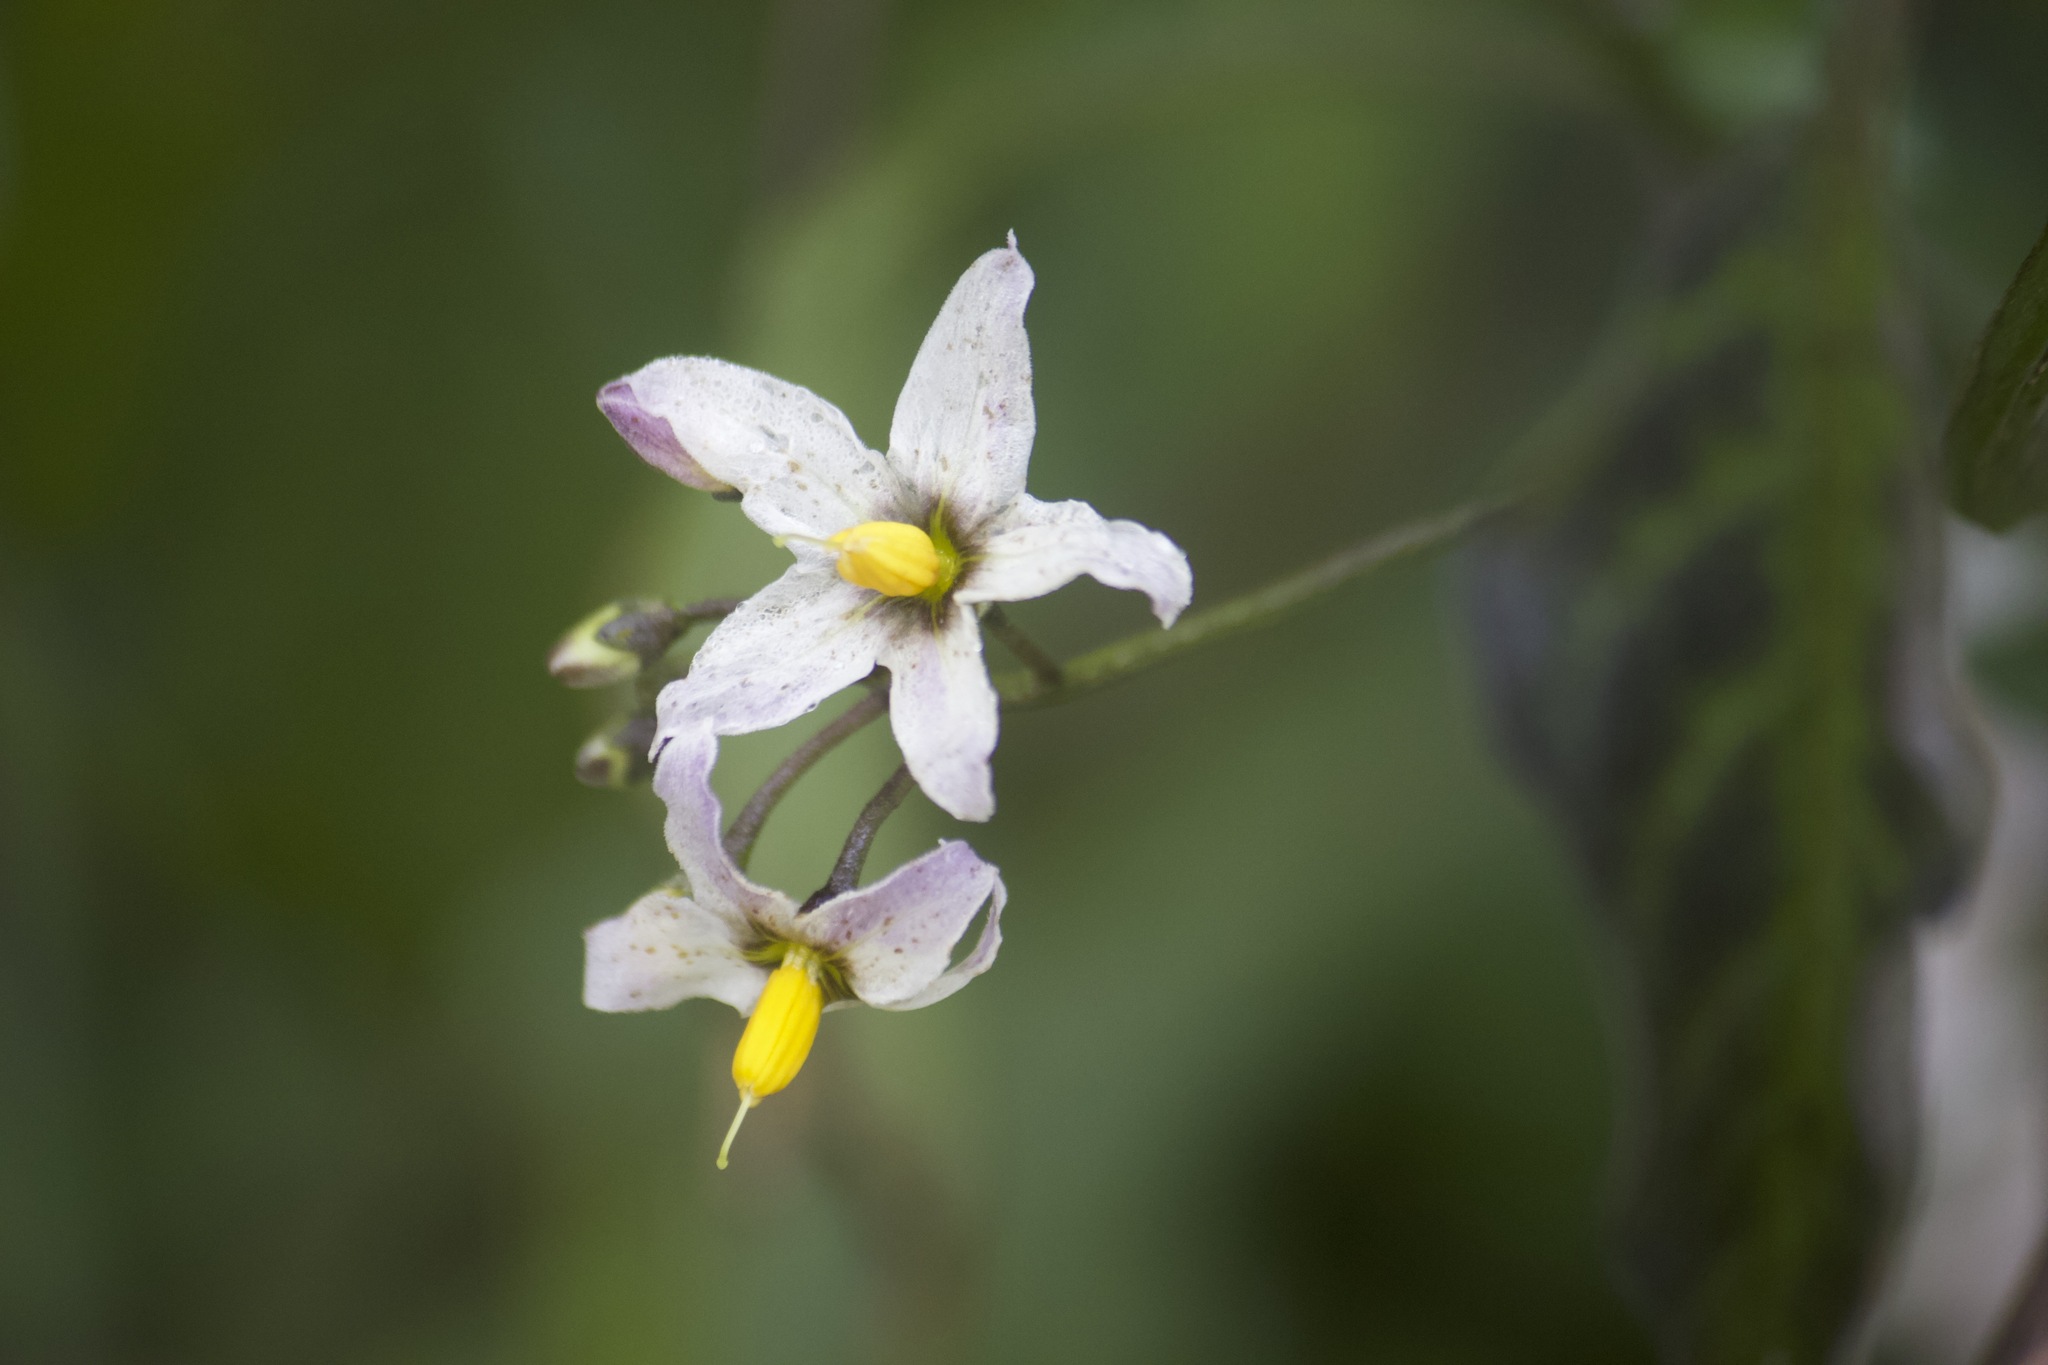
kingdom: Plantae
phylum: Tracheophyta
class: Magnoliopsida
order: Solanales
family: Solanaceae
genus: Solanum
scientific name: Solanum douglasii
